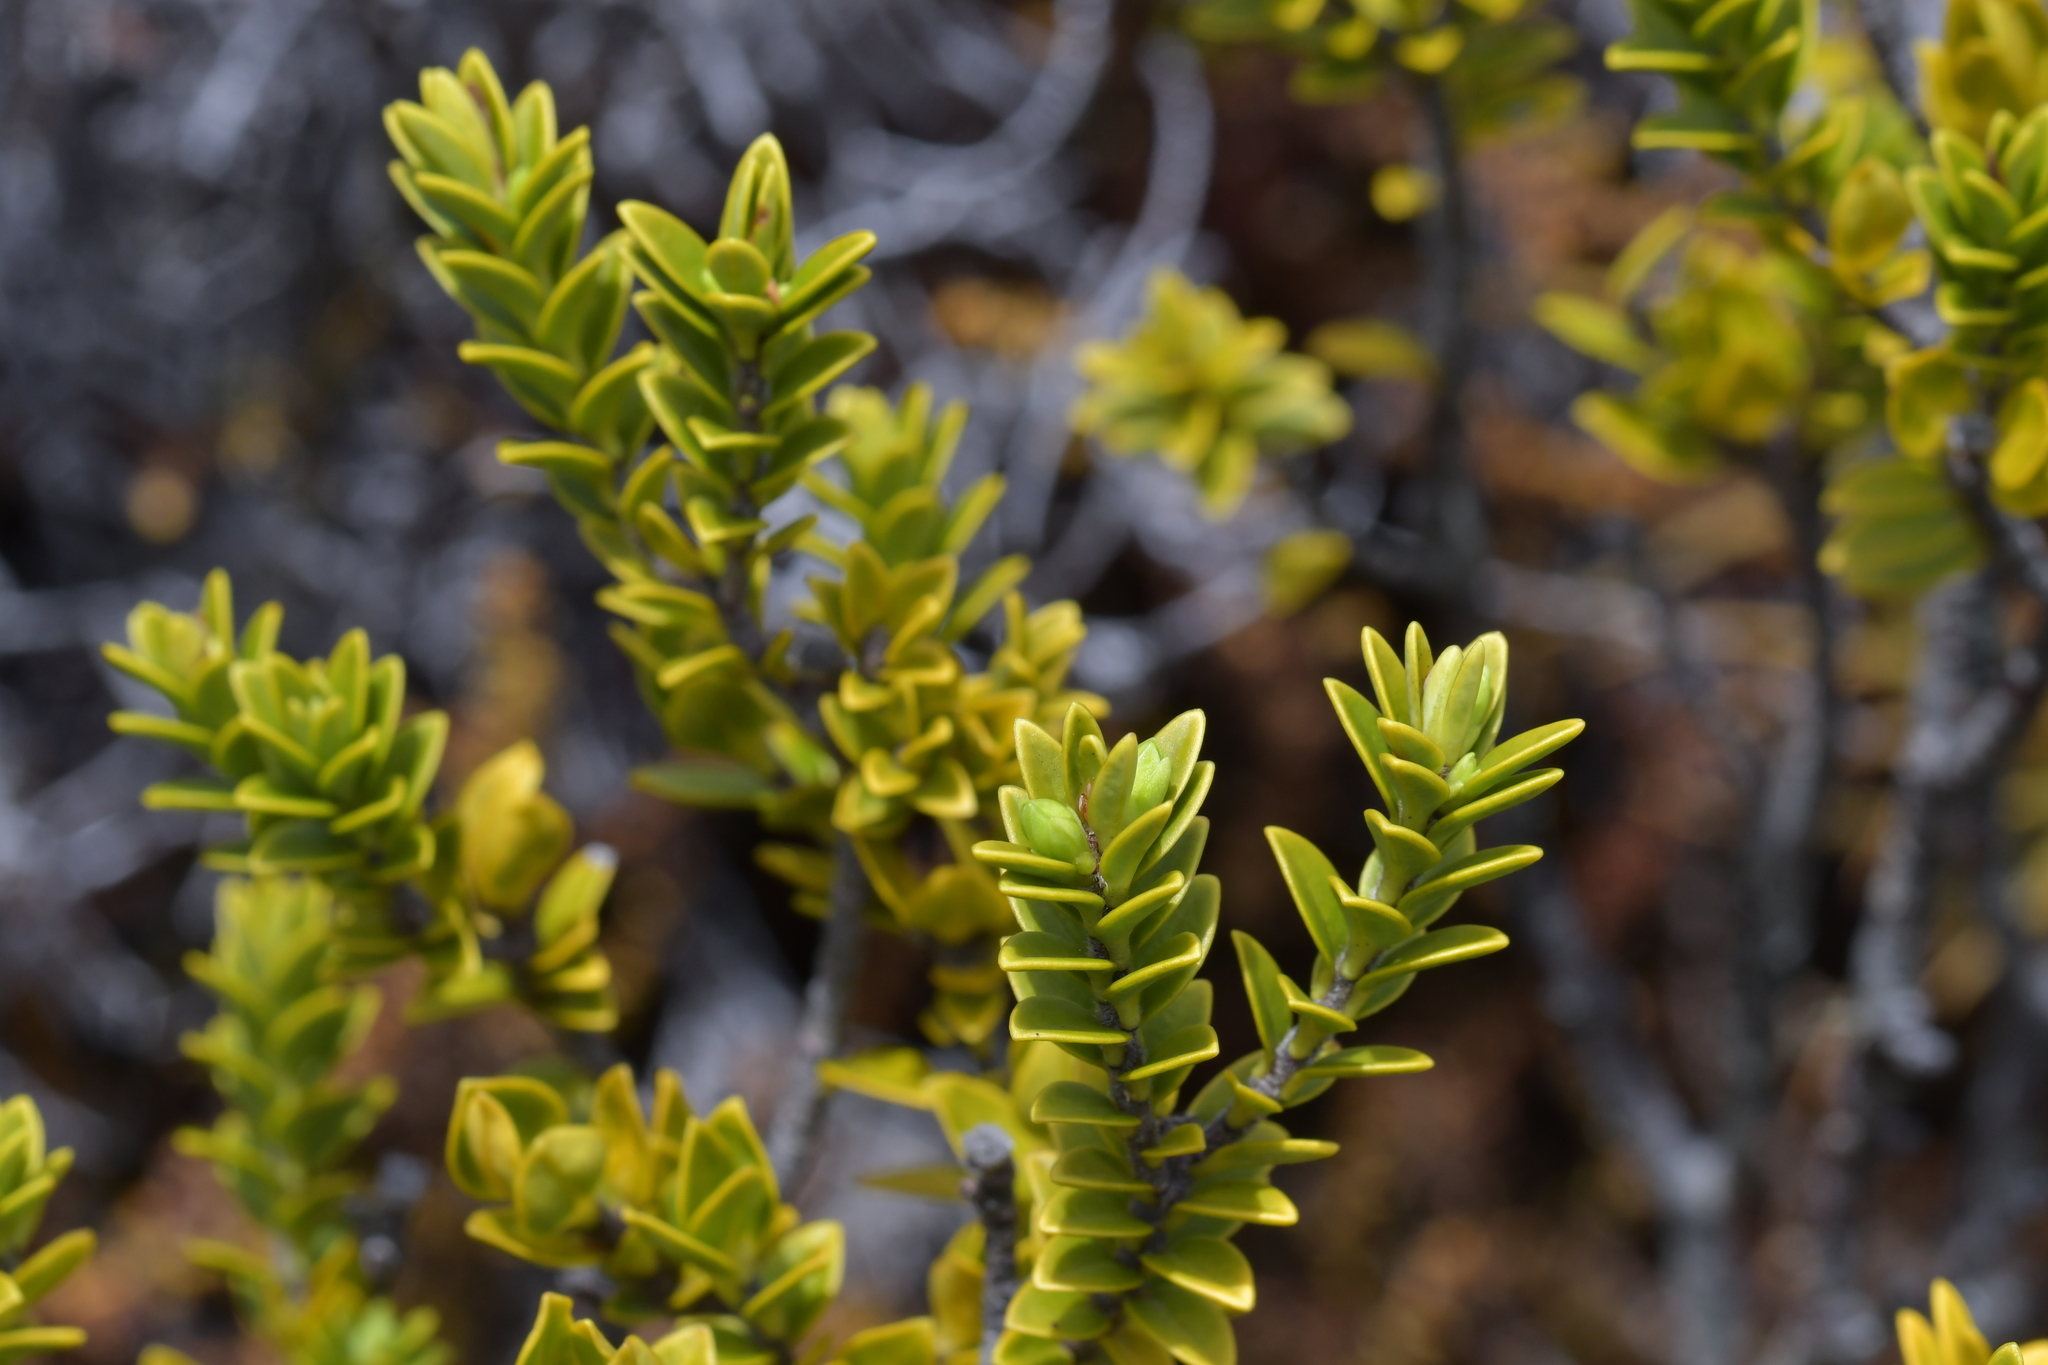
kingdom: Plantae
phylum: Tracheophyta
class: Magnoliopsida
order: Malvales
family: Thymelaeaceae
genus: Pimelea
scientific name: Pimelea buxifolia
